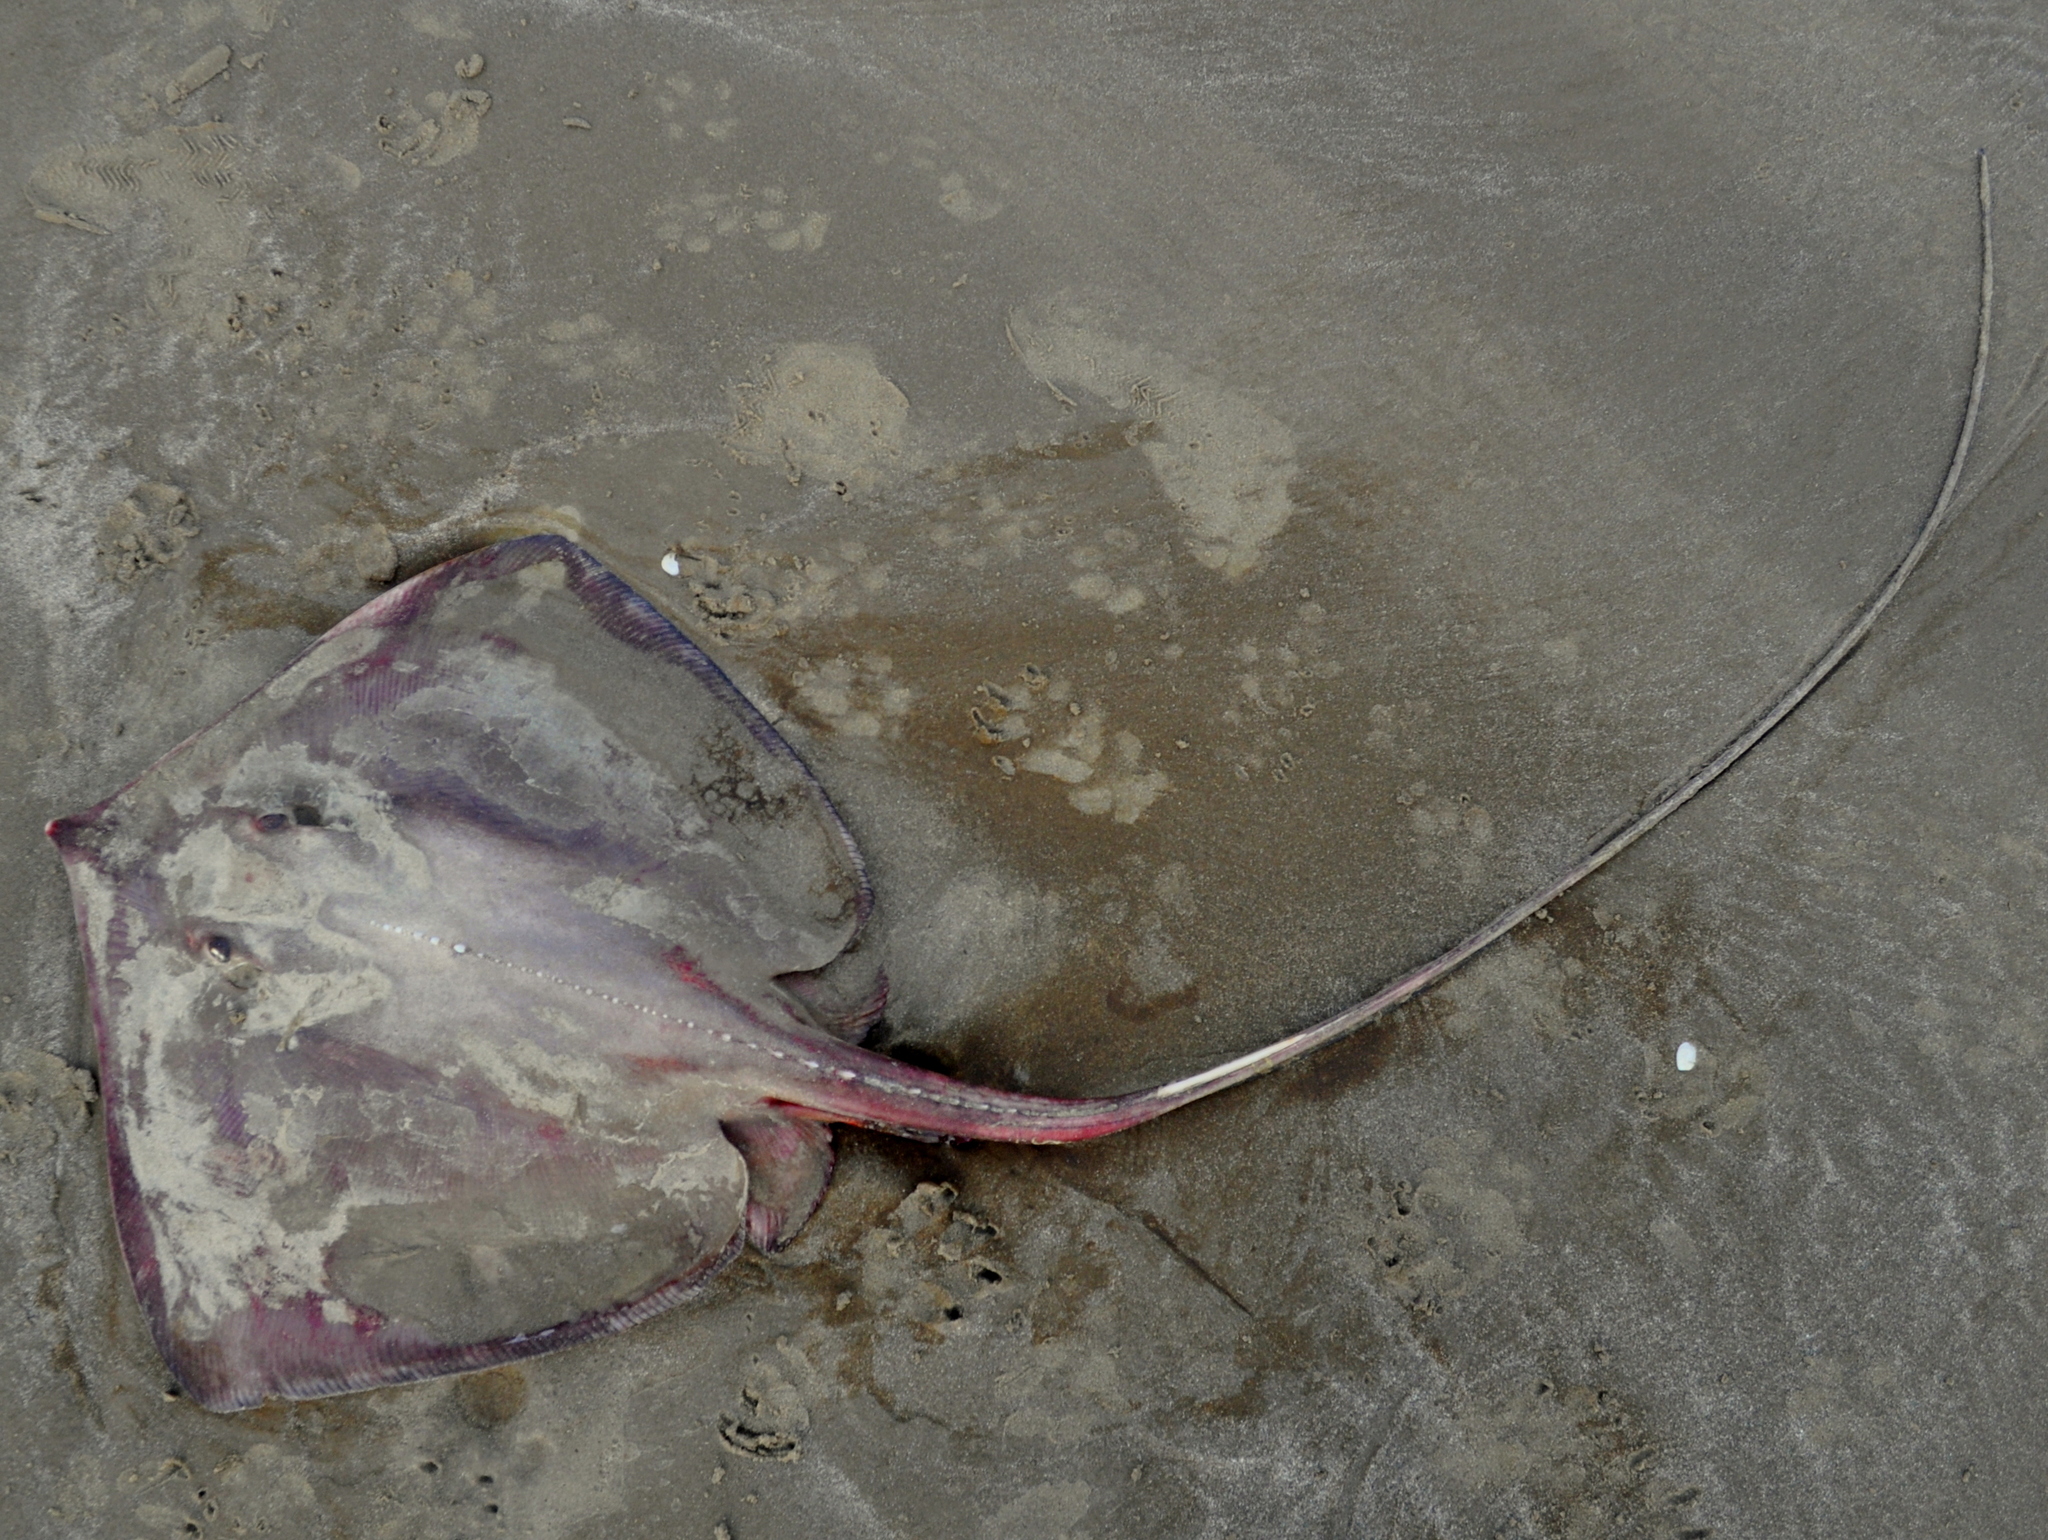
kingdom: Animalia
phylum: Chordata
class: Elasmobranchii
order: Myliobatiformes
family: Dasyatidae
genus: Hypanus
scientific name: Hypanus guttatus
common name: Longnose stingray
